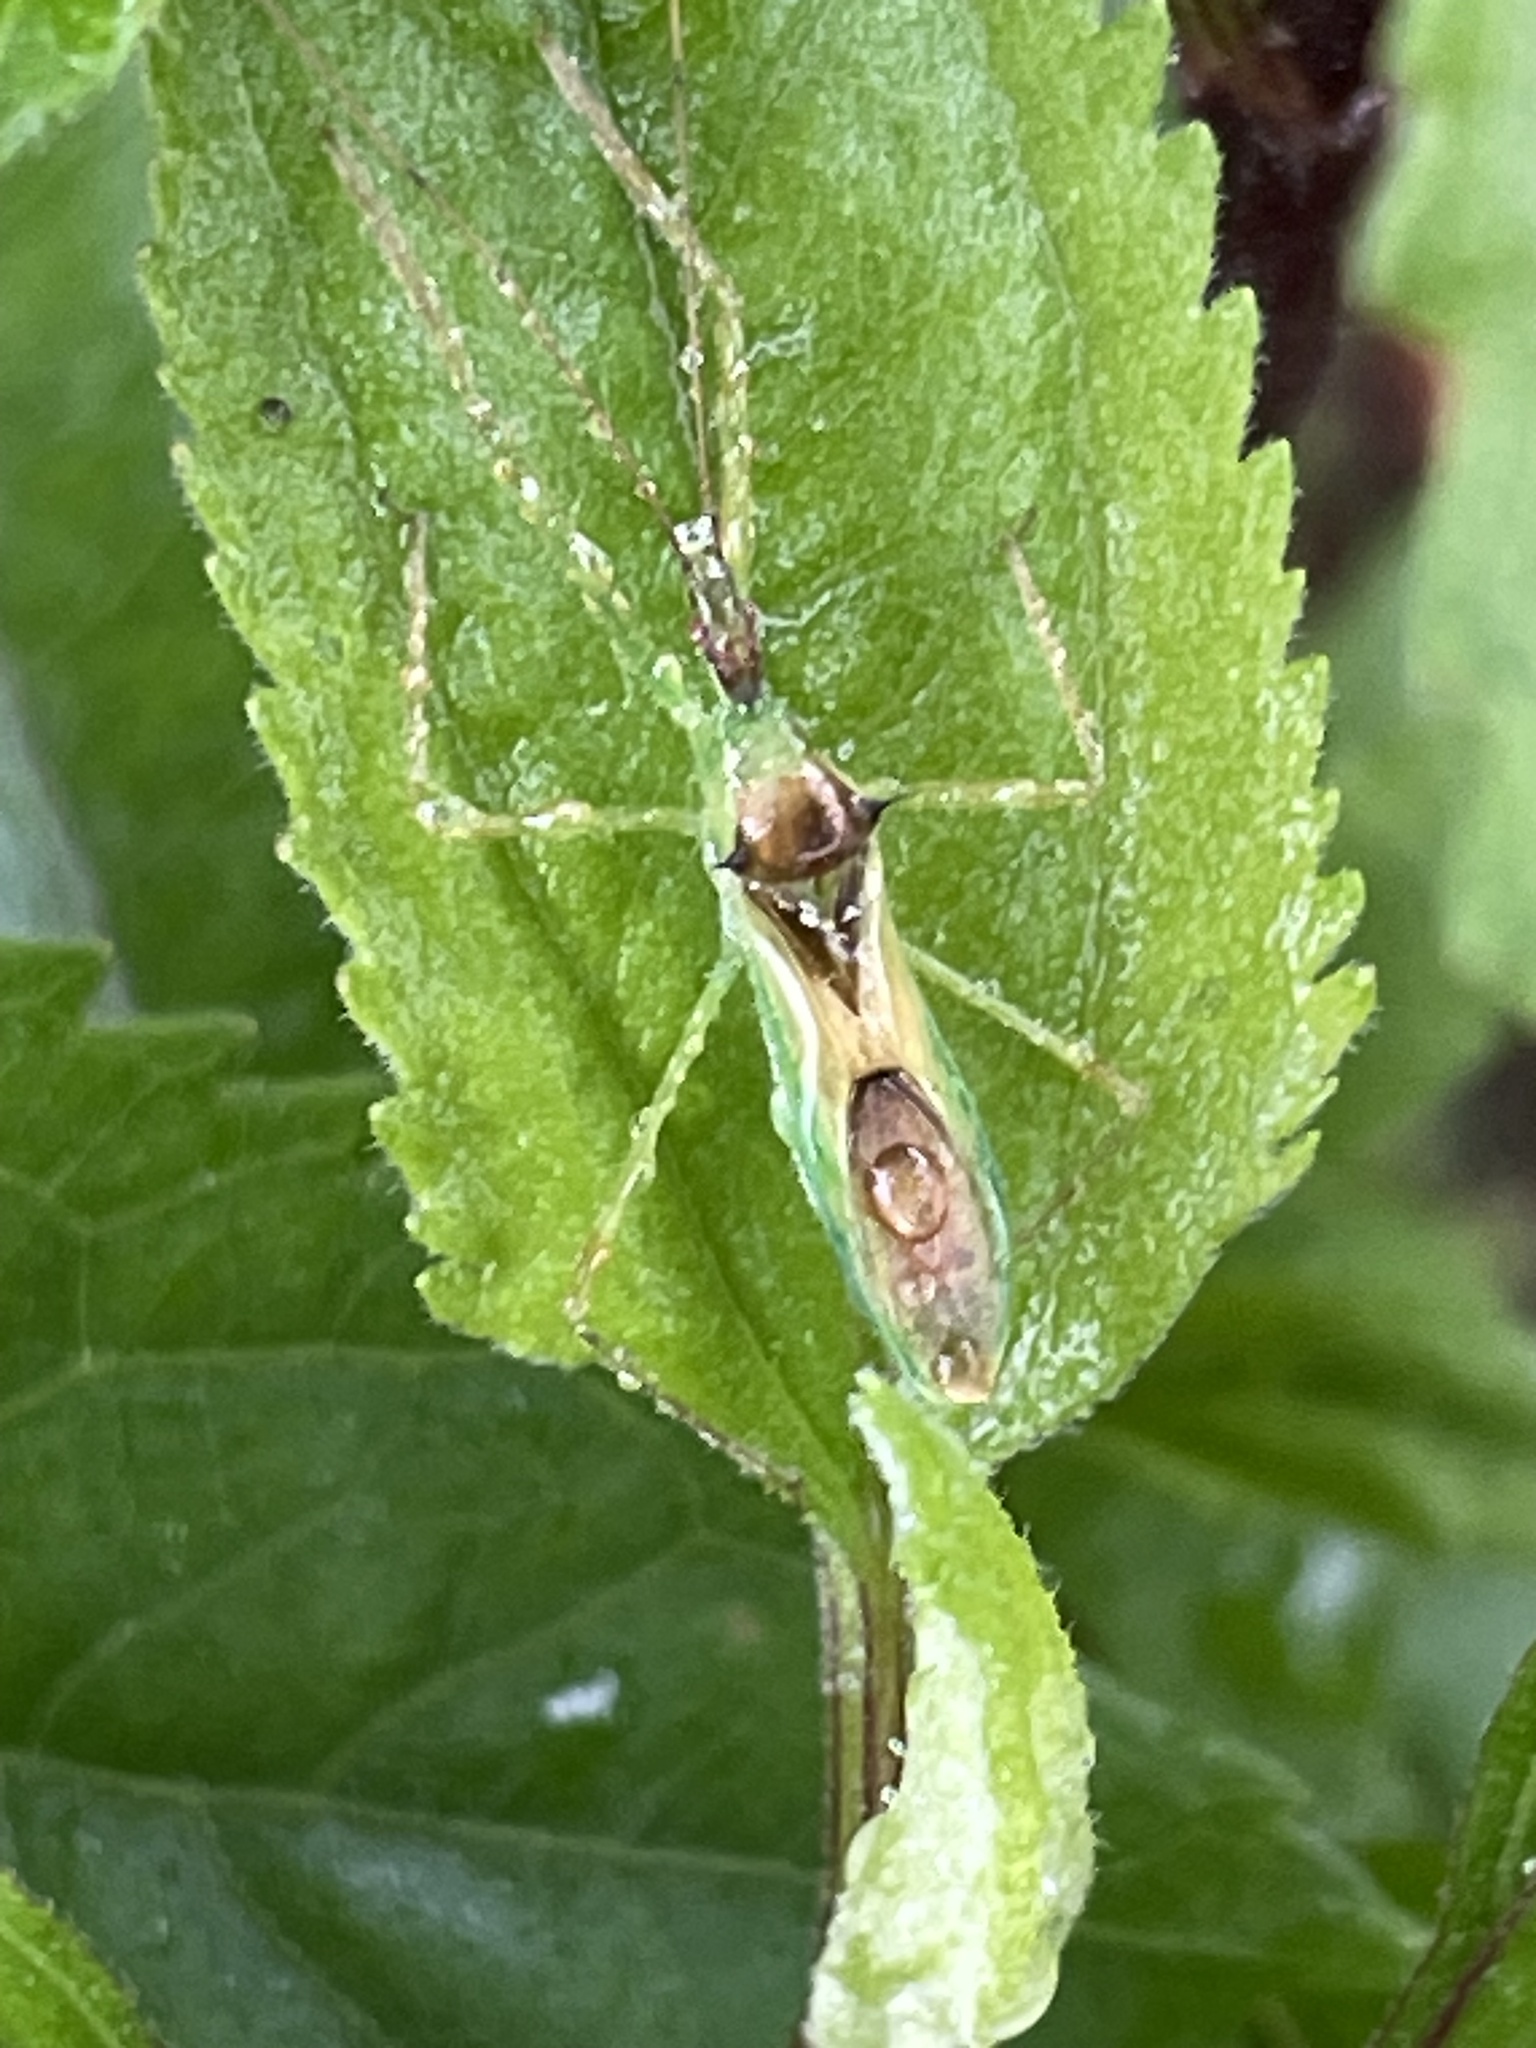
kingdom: Animalia
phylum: Arthropoda
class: Insecta
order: Hemiptera
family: Reduviidae
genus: Zelus
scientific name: Zelus luridus
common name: Pale green assassin bug
